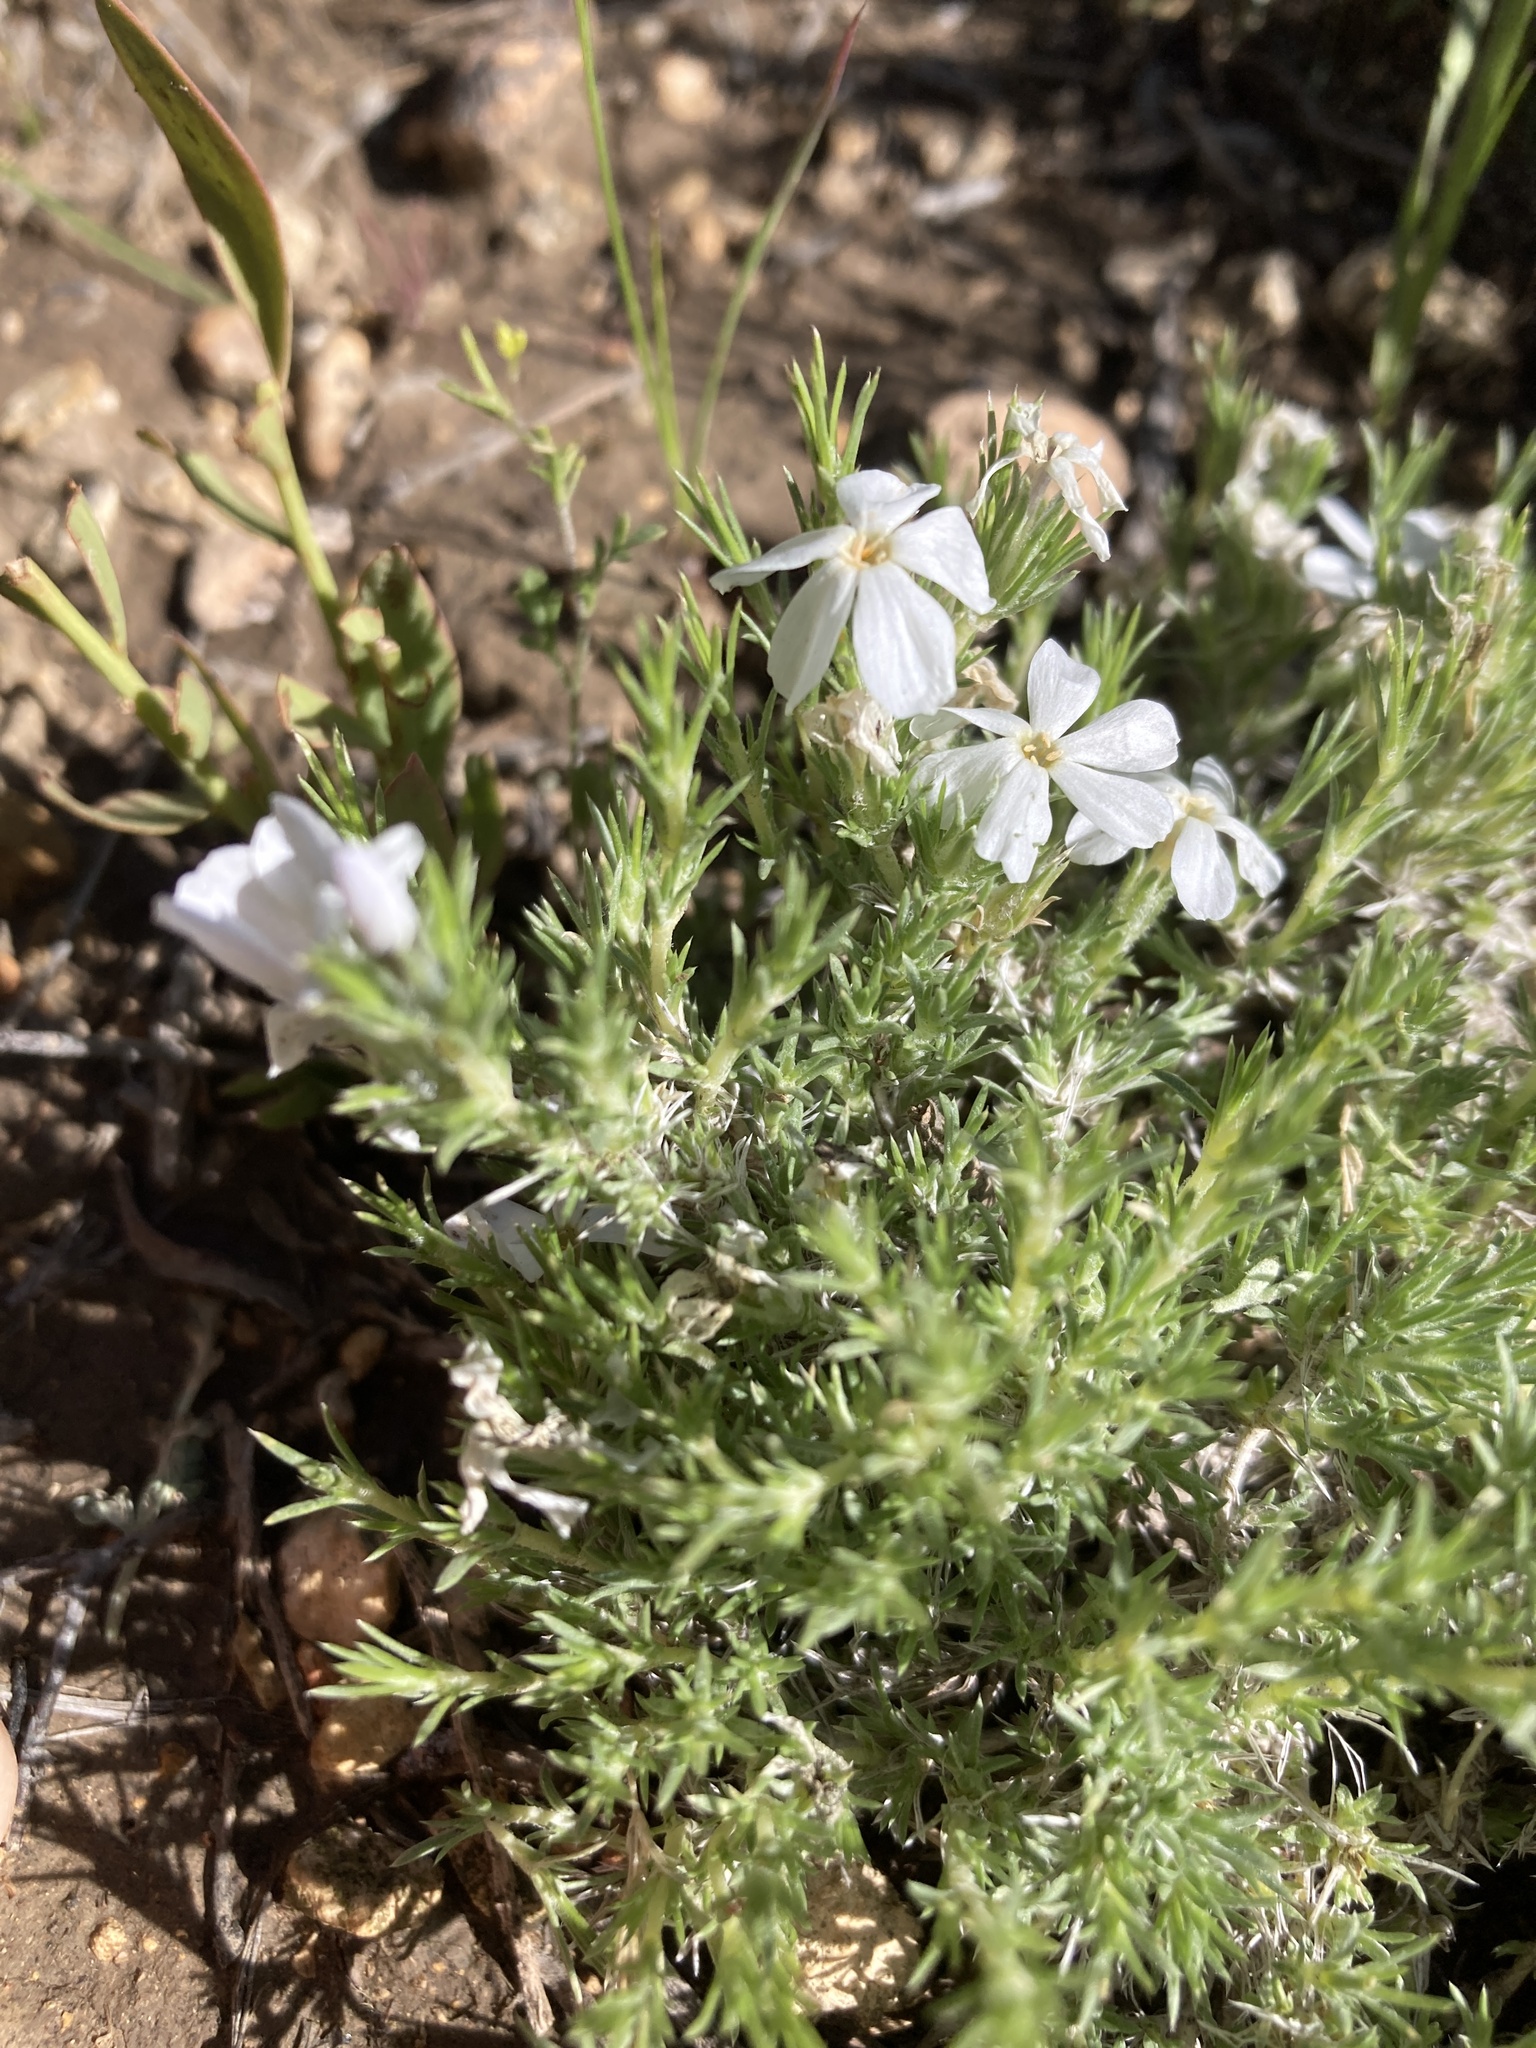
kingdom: Plantae
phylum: Tracheophyta
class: Magnoliopsida
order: Ericales
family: Polemoniaceae
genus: Phlox
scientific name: Phlox hoodii
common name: Moss phlox
